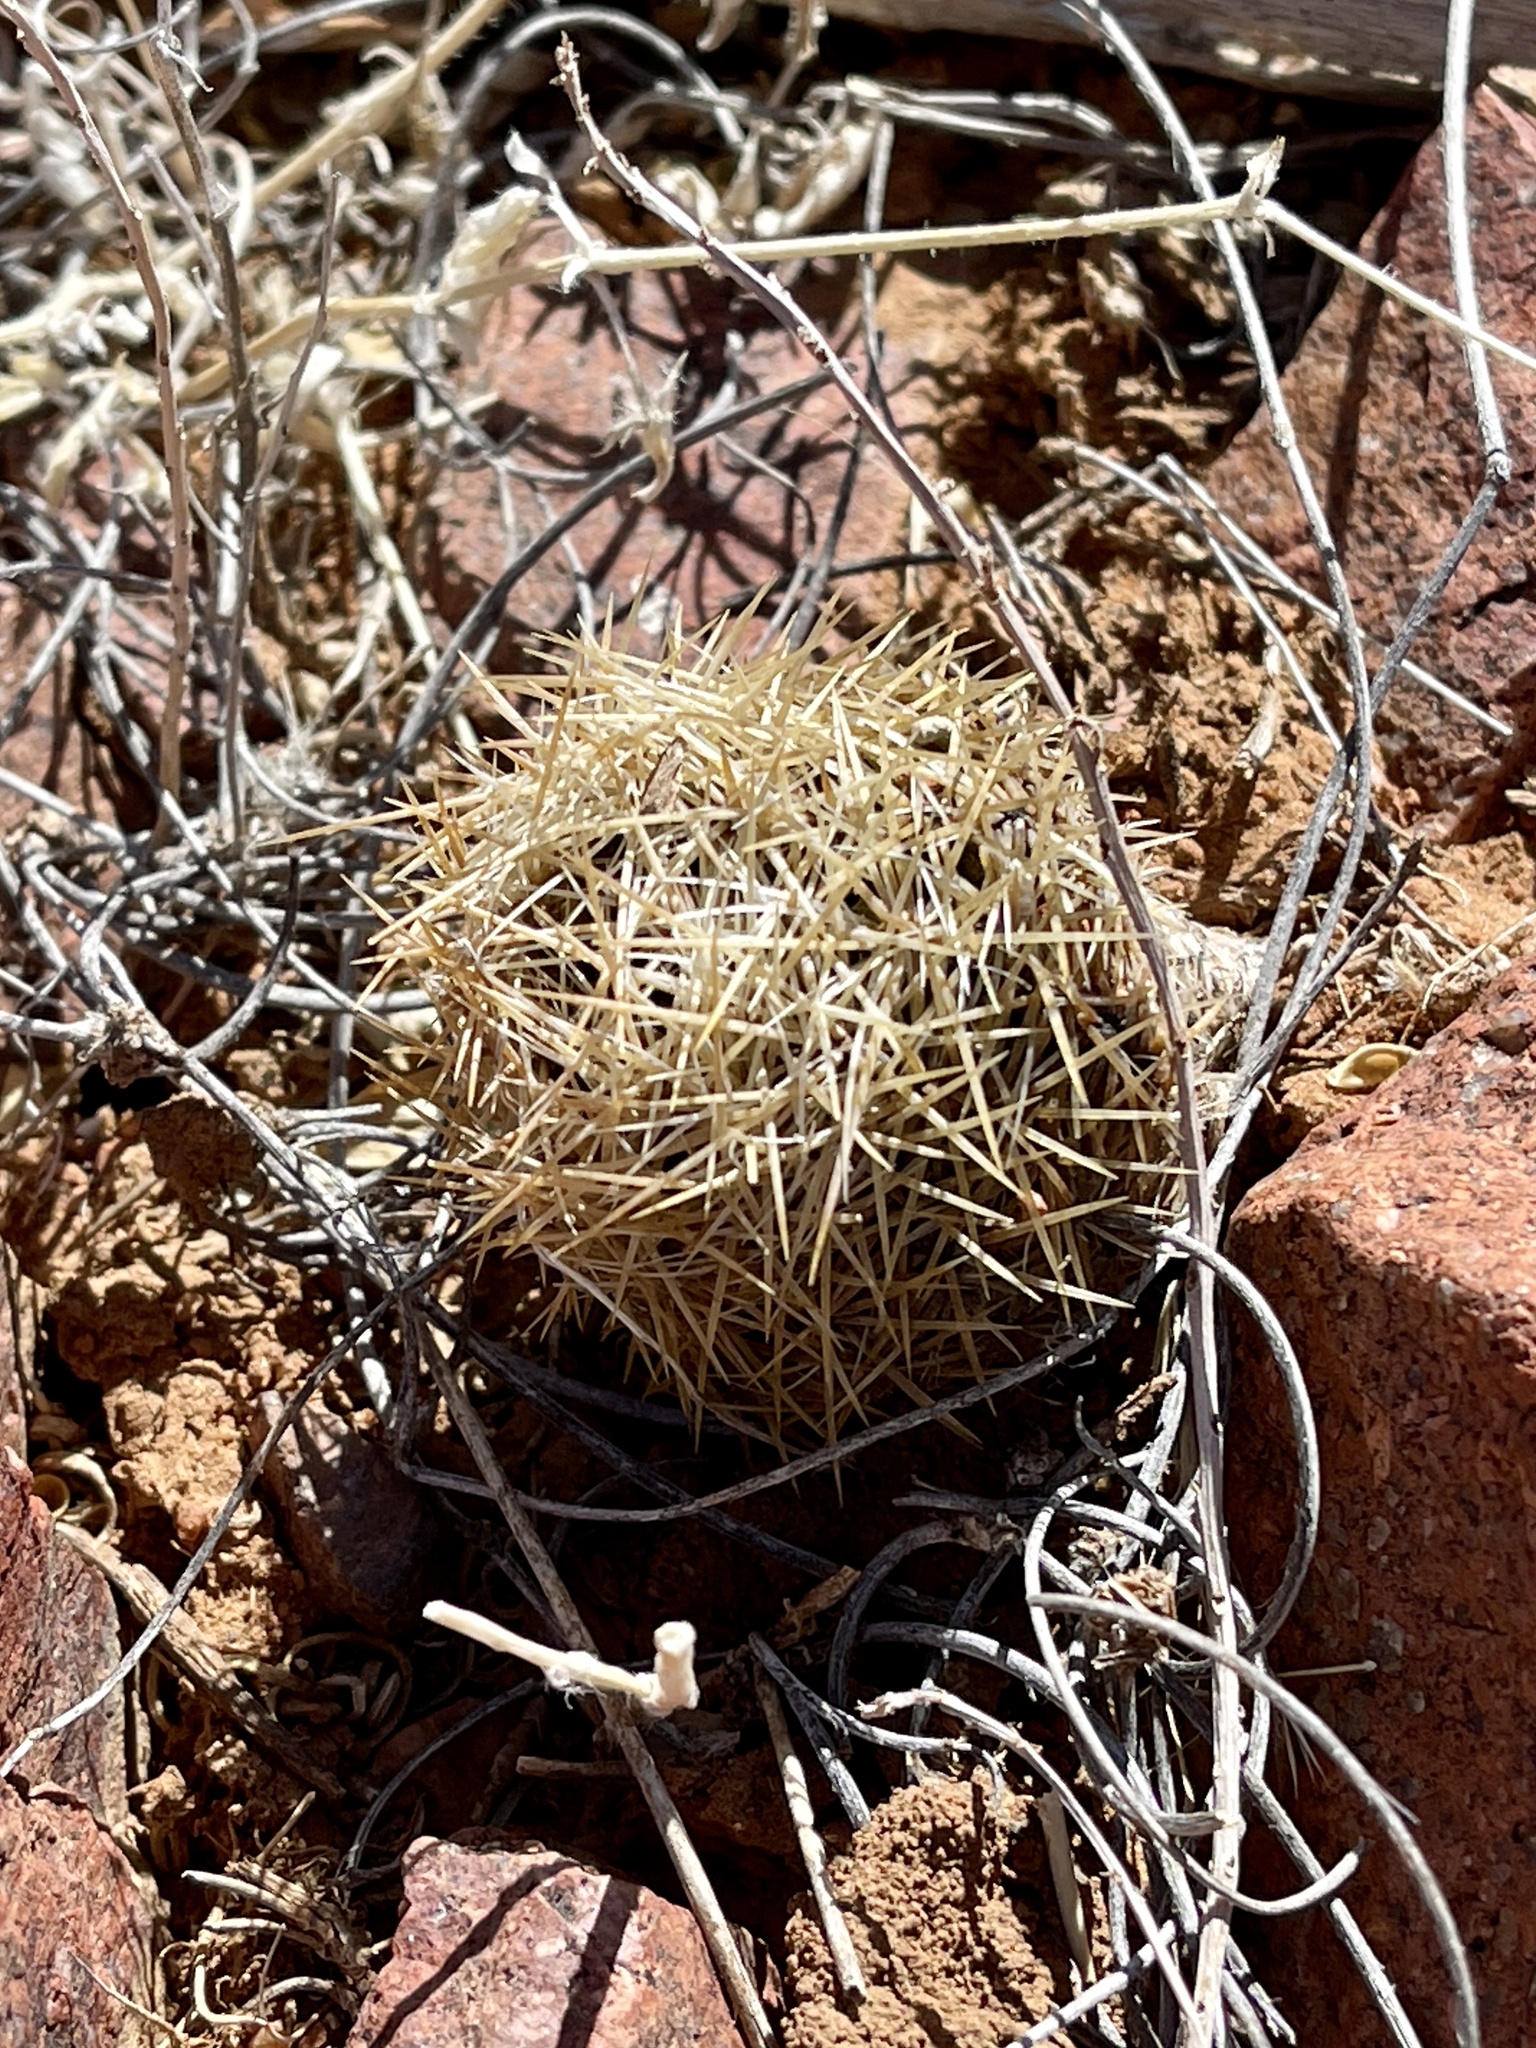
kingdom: Plantae
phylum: Tracheophyta
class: Magnoliopsida
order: Caryophyllales
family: Cactaceae
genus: Sclerocactus
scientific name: Sclerocactus intertextus
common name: White fish-hook cactus
